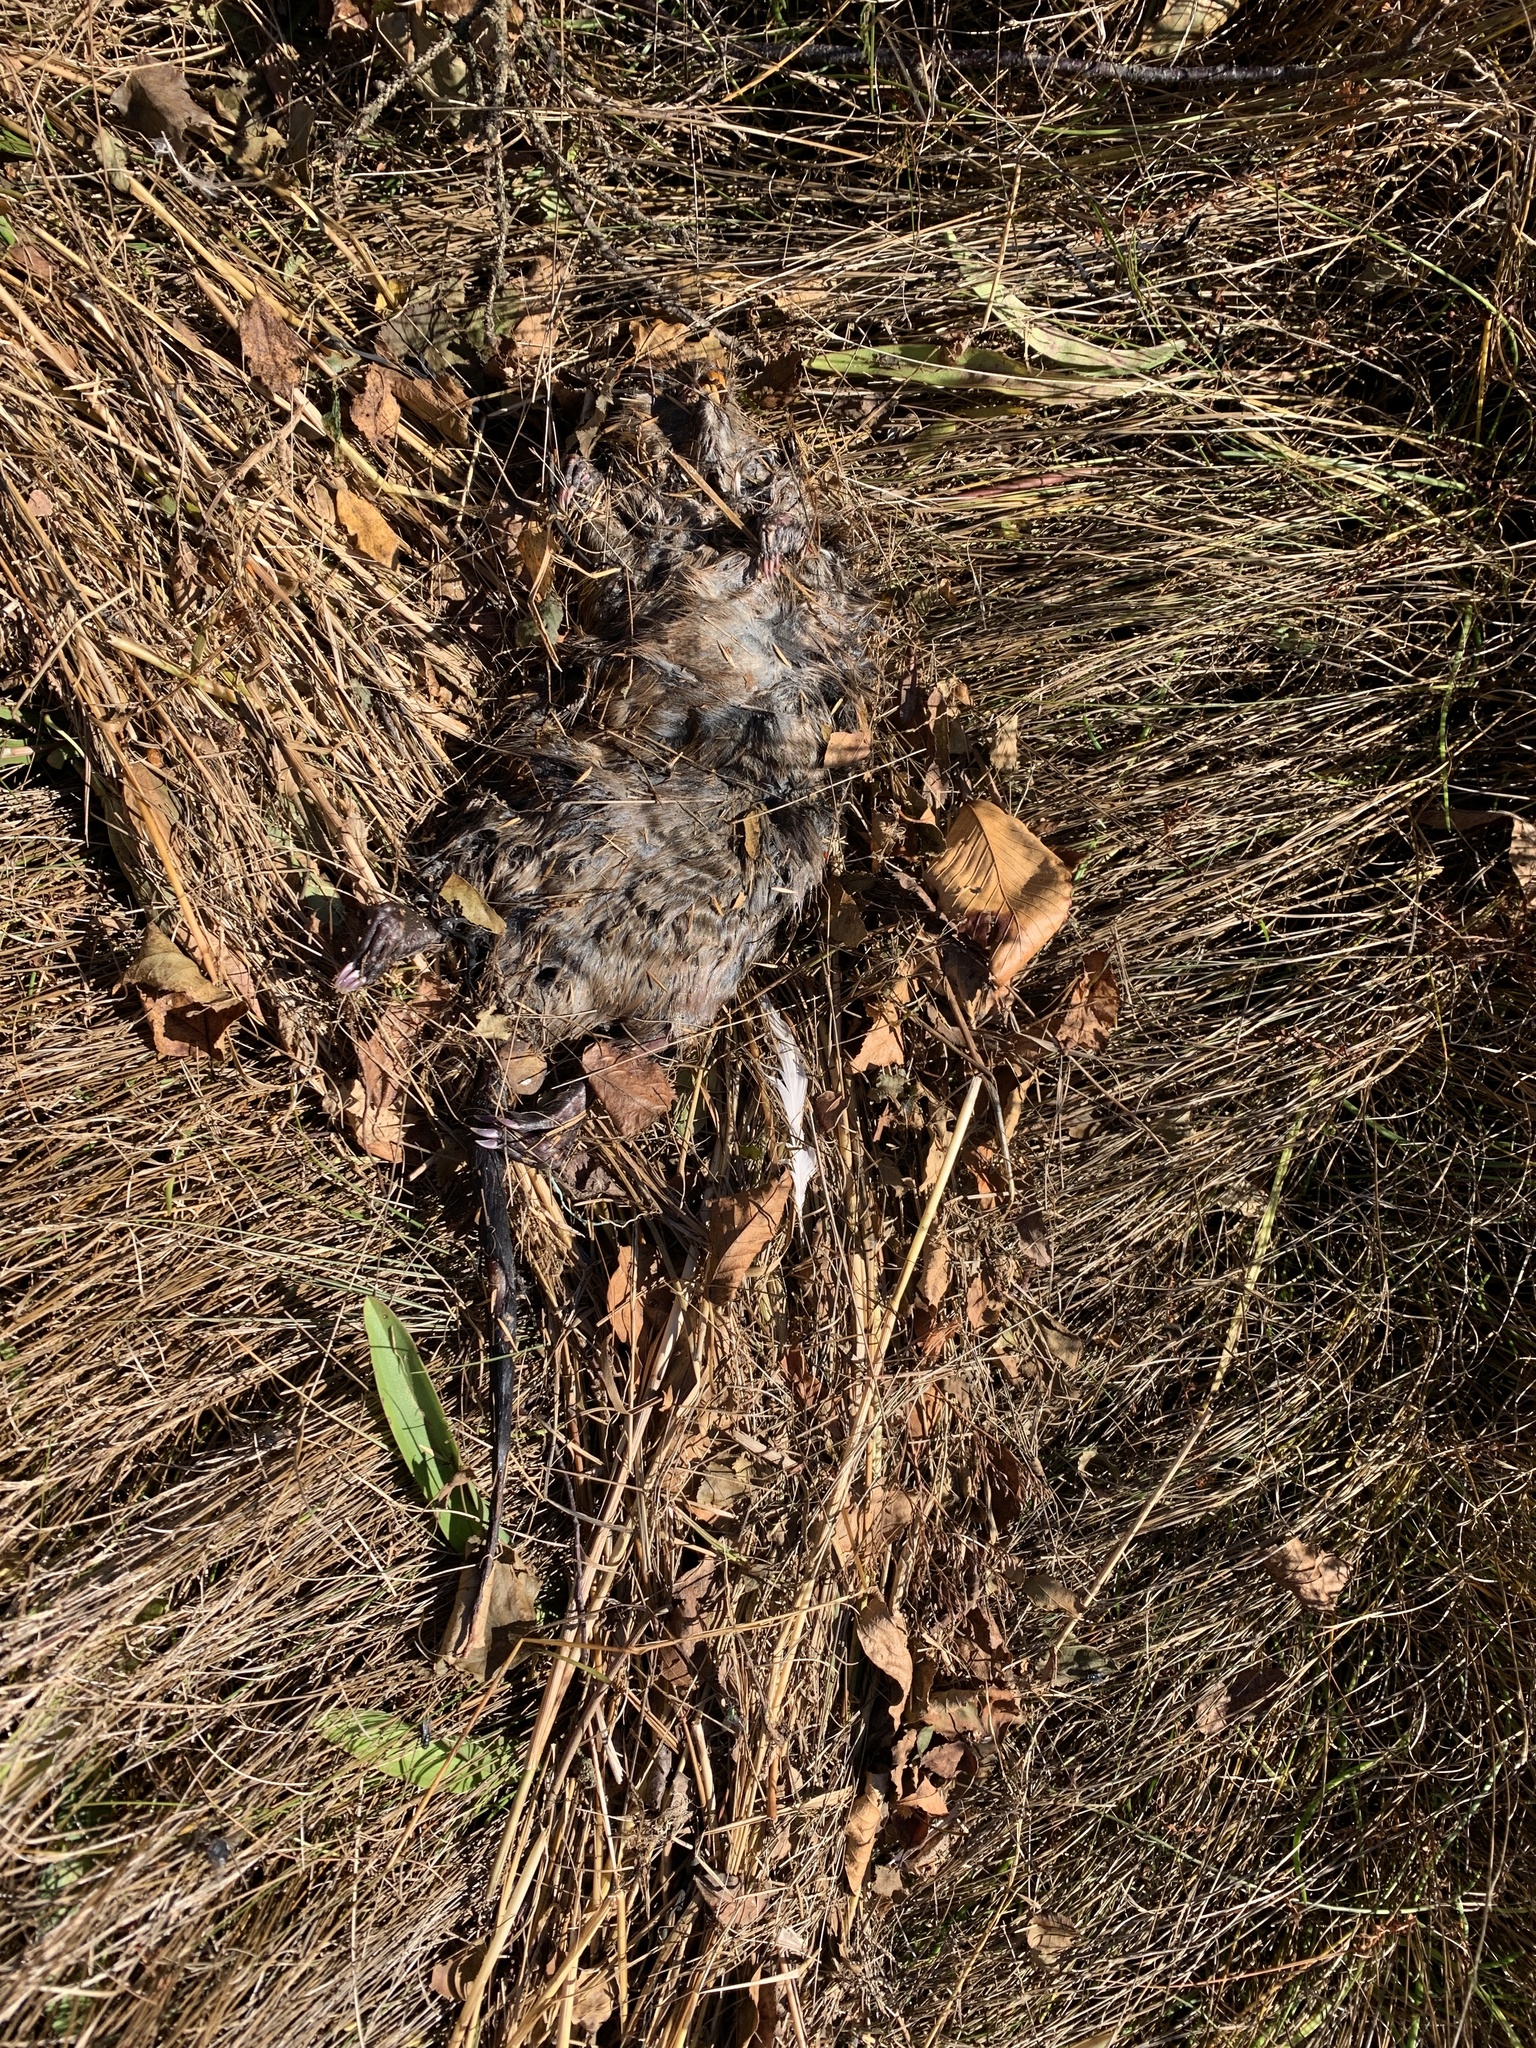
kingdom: Animalia
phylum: Chordata
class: Mammalia
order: Rodentia
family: Cricetidae
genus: Ondatra
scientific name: Ondatra zibethicus
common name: Muskrat
